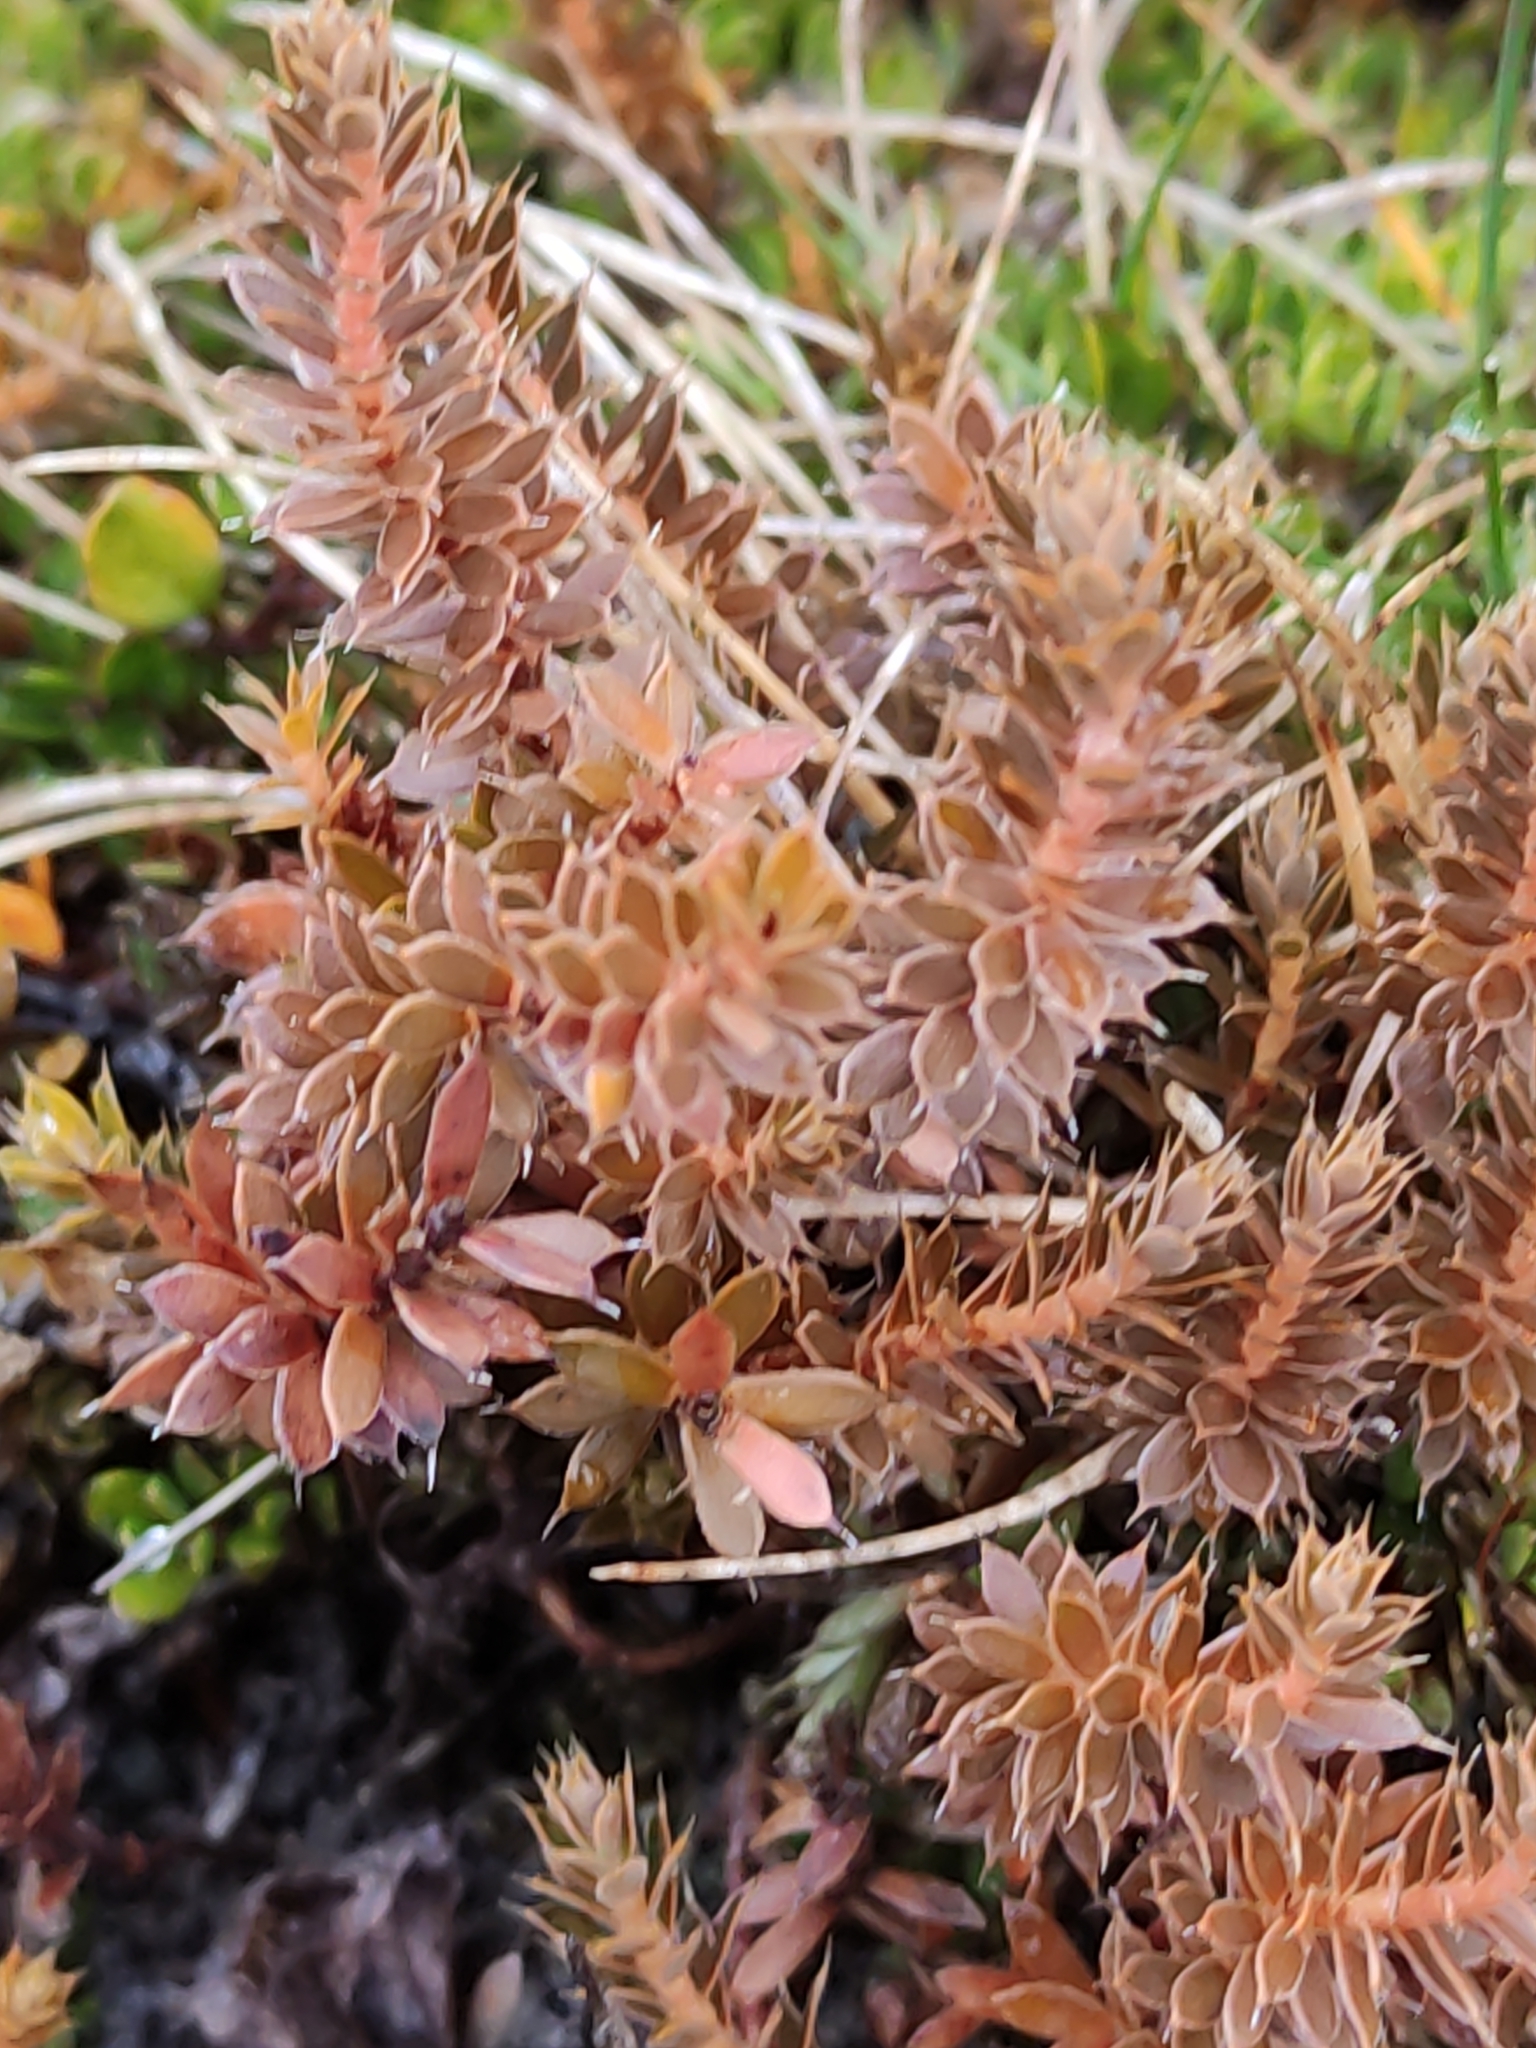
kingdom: Plantae
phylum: Tracheophyta
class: Magnoliopsida
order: Ericales
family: Ericaceae
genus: Styphelia
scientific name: Styphelia nesophila
